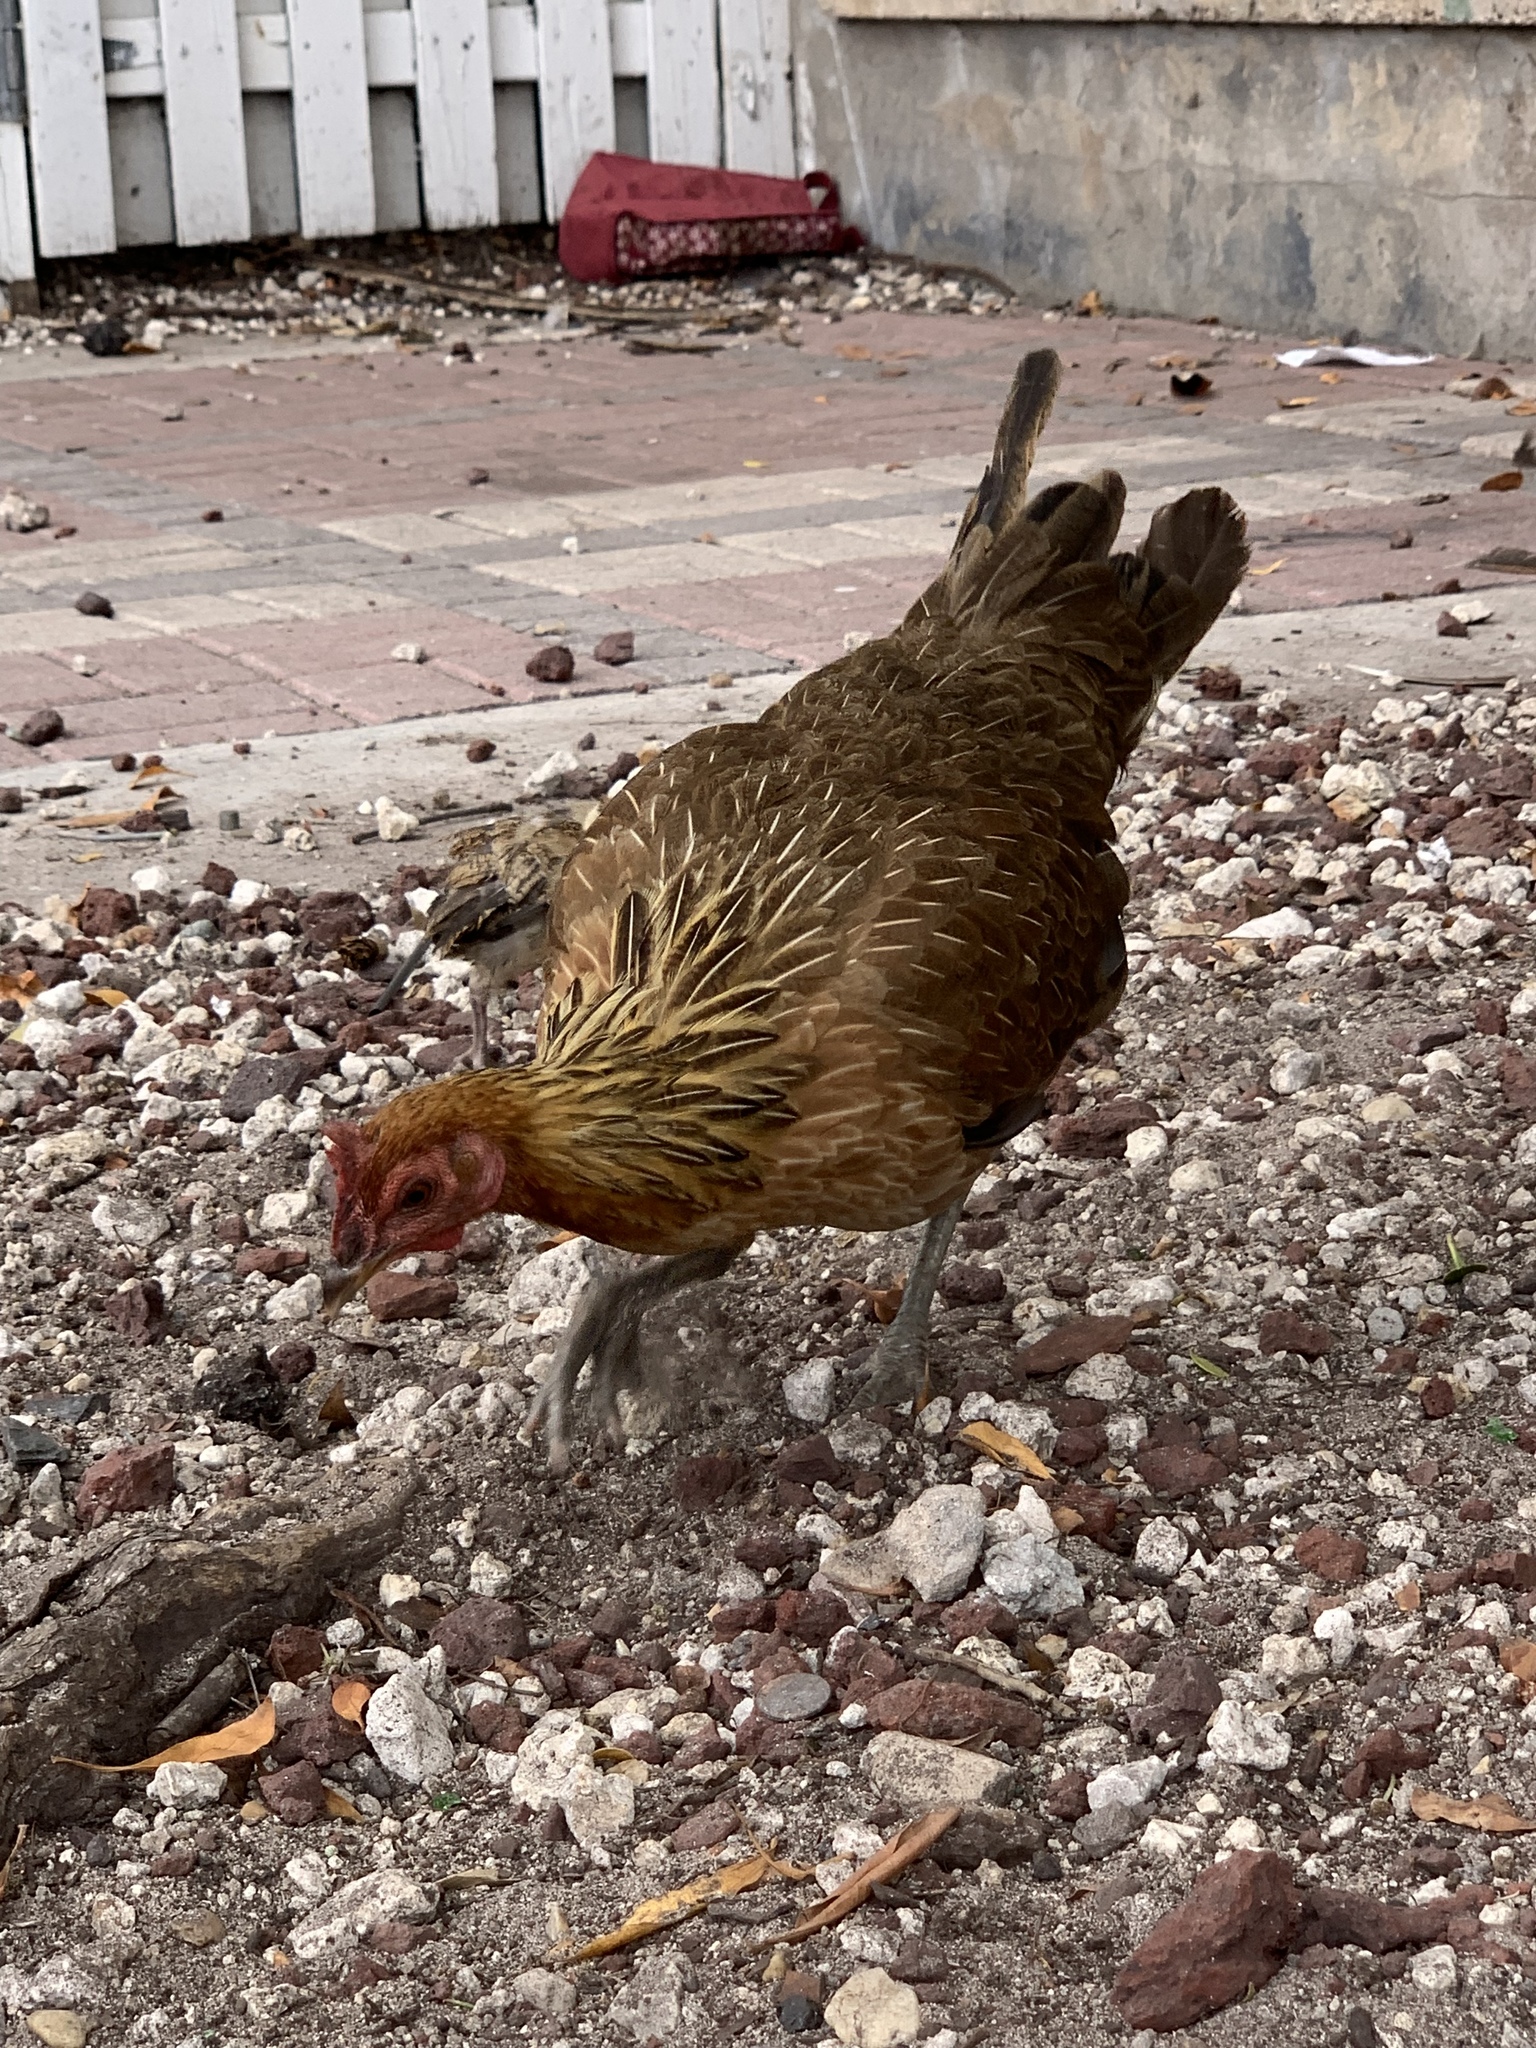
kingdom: Animalia
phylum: Chordata
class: Aves
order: Galliformes
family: Phasianidae
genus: Gallus
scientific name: Gallus gallus
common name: Red junglefowl
